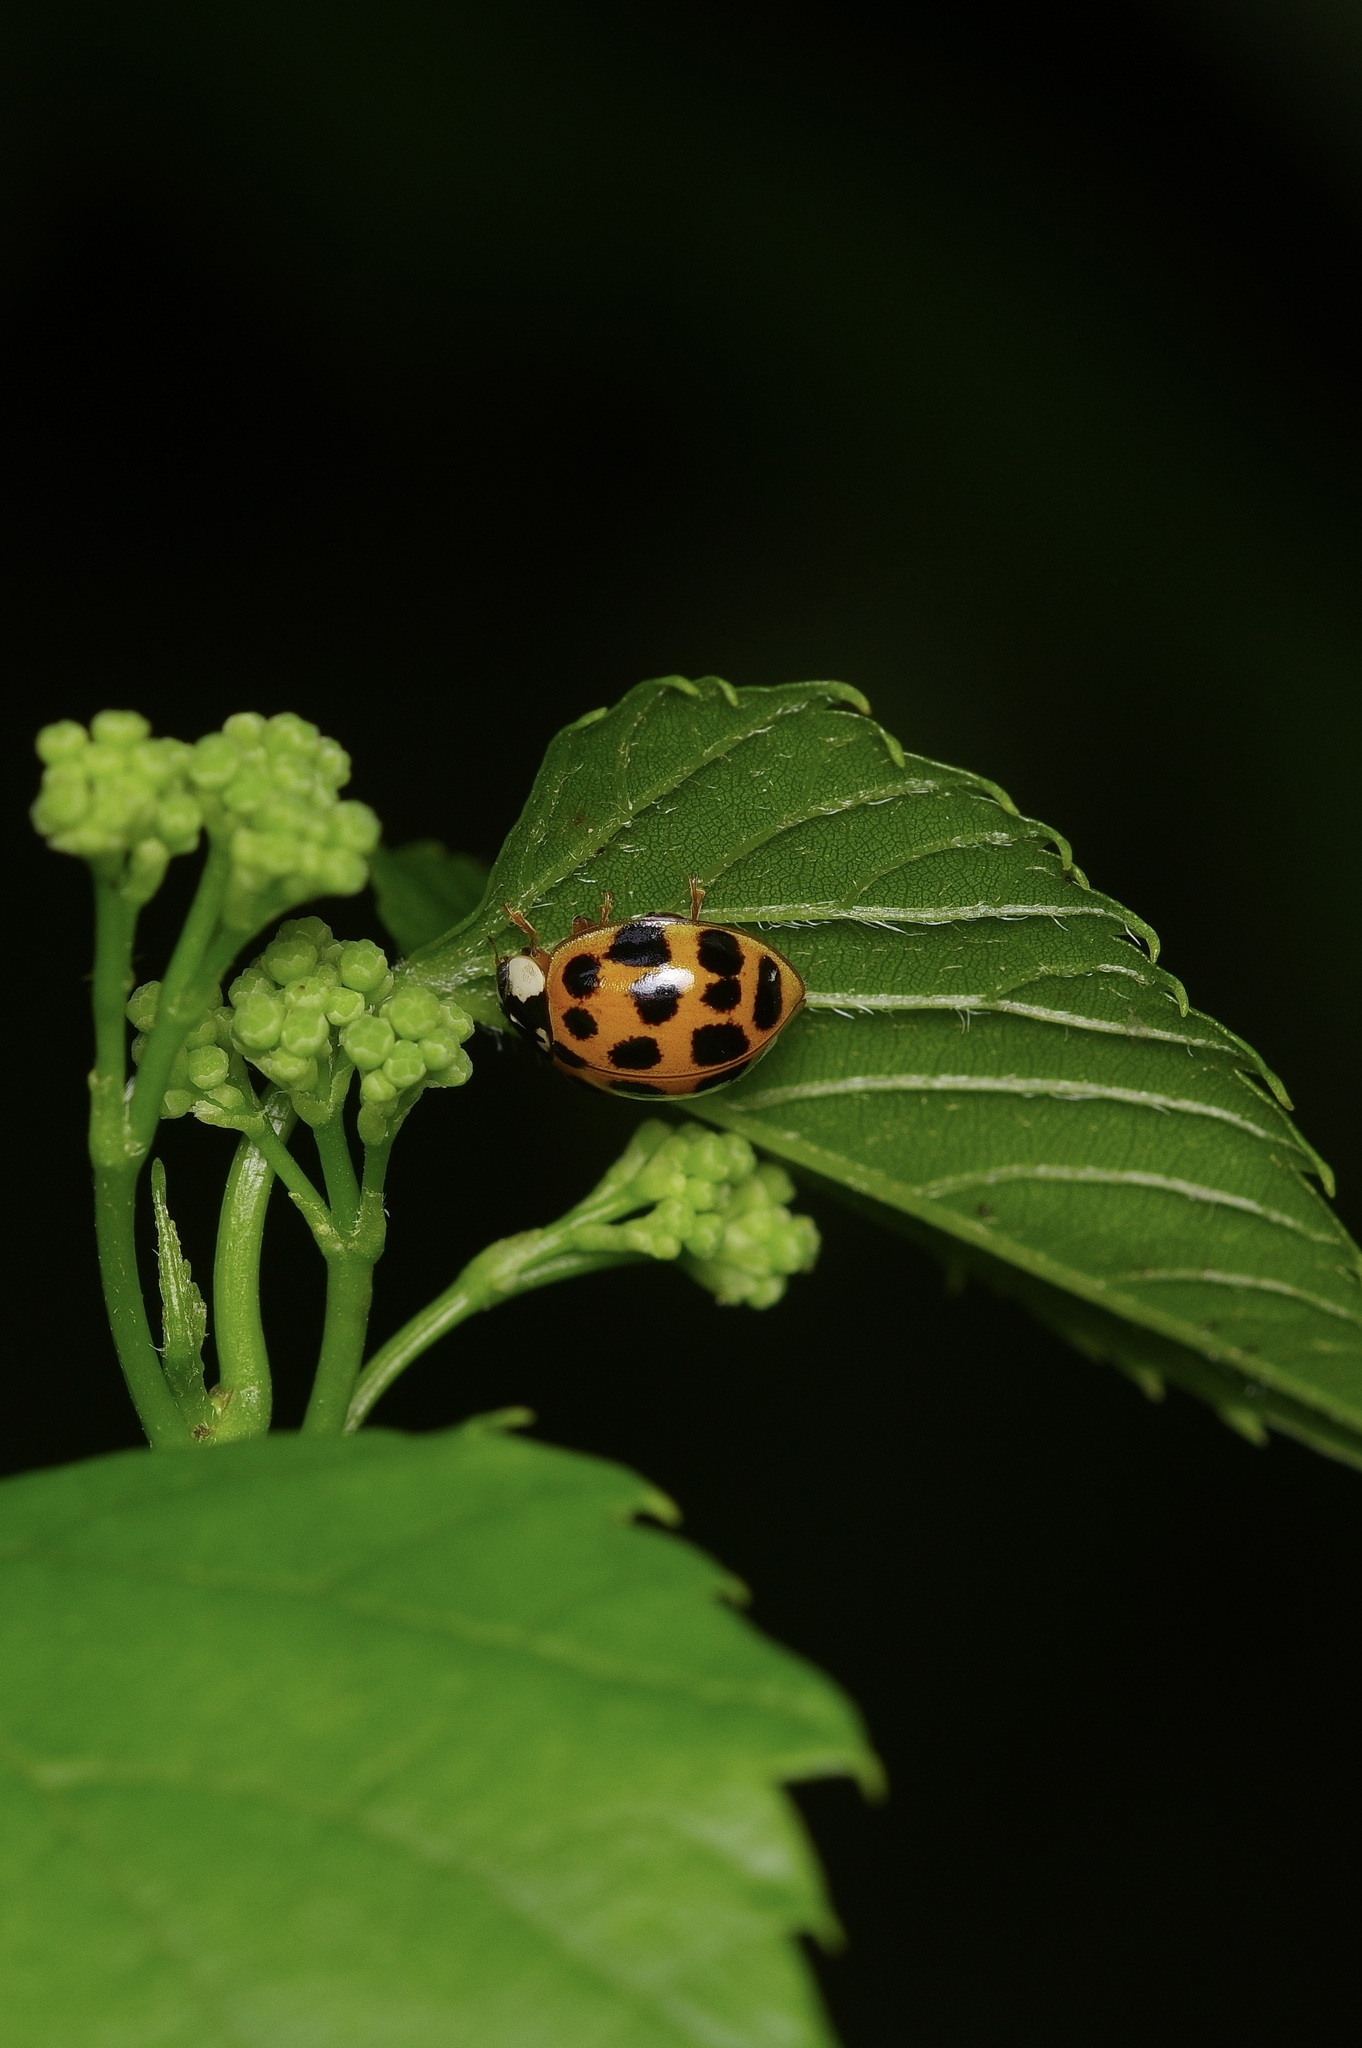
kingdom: Animalia
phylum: Arthropoda
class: Insecta
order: Coleoptera
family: Coccinellidae
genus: Harmonia
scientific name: Harmonia axyridis
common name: Harlequin ladybird
